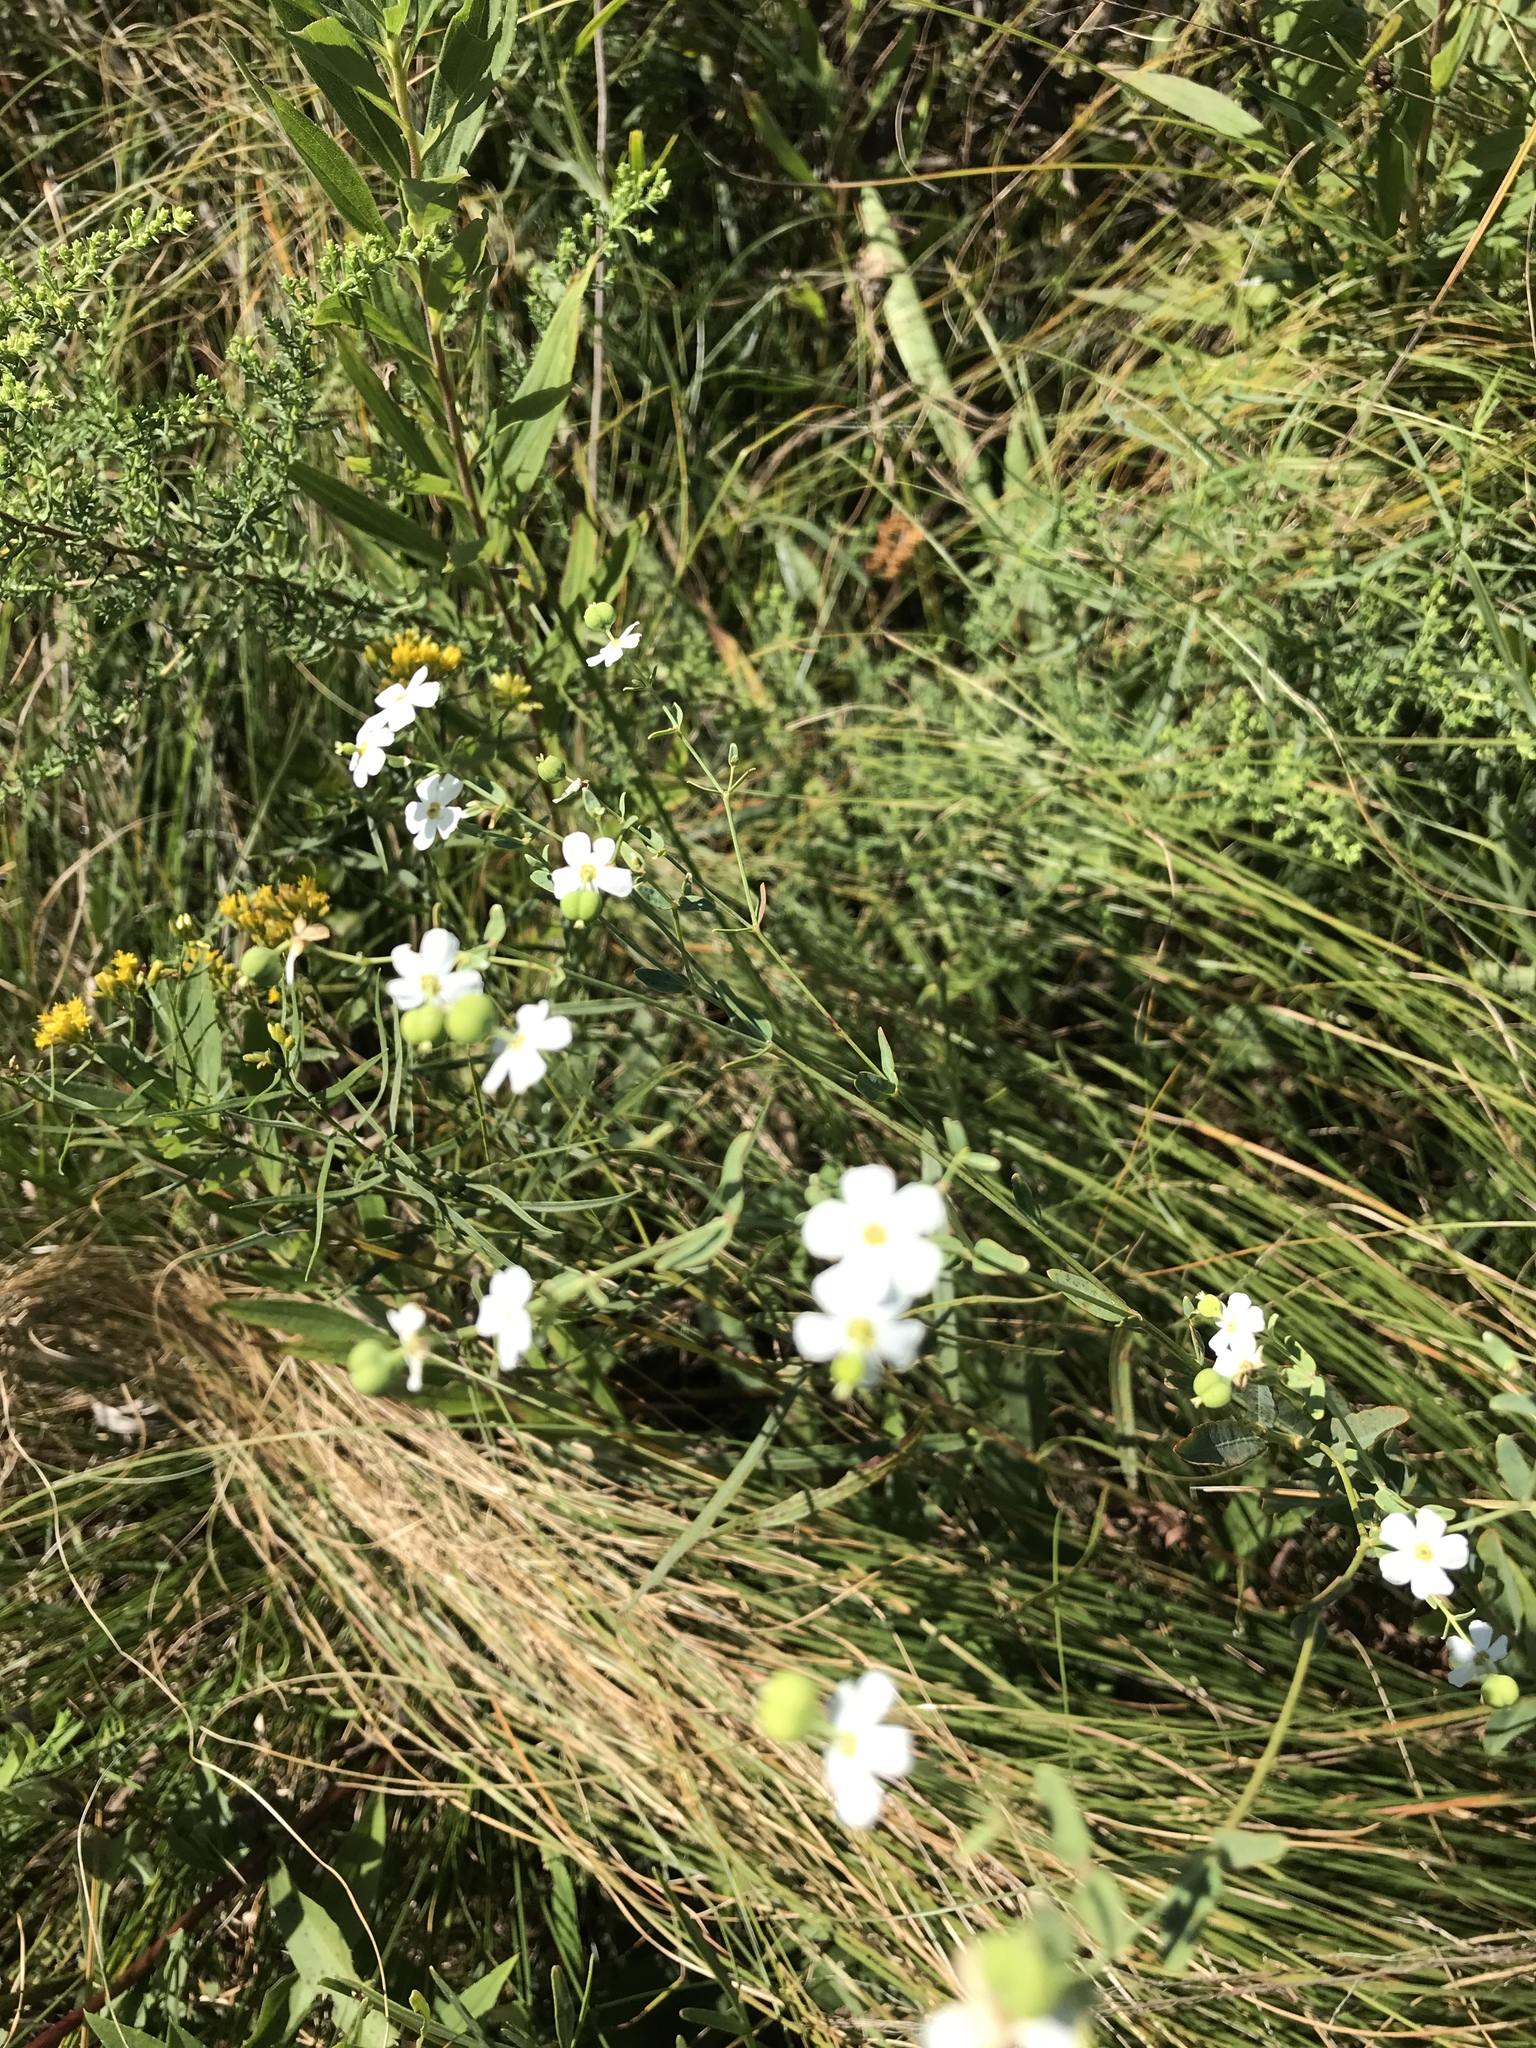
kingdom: Plantae
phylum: Tracheophyta
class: Magnoliopsida
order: Malpighiales
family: Euphorbiaceae
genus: Euphorbia
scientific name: Euphorbia corollata
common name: Flowering spurge
